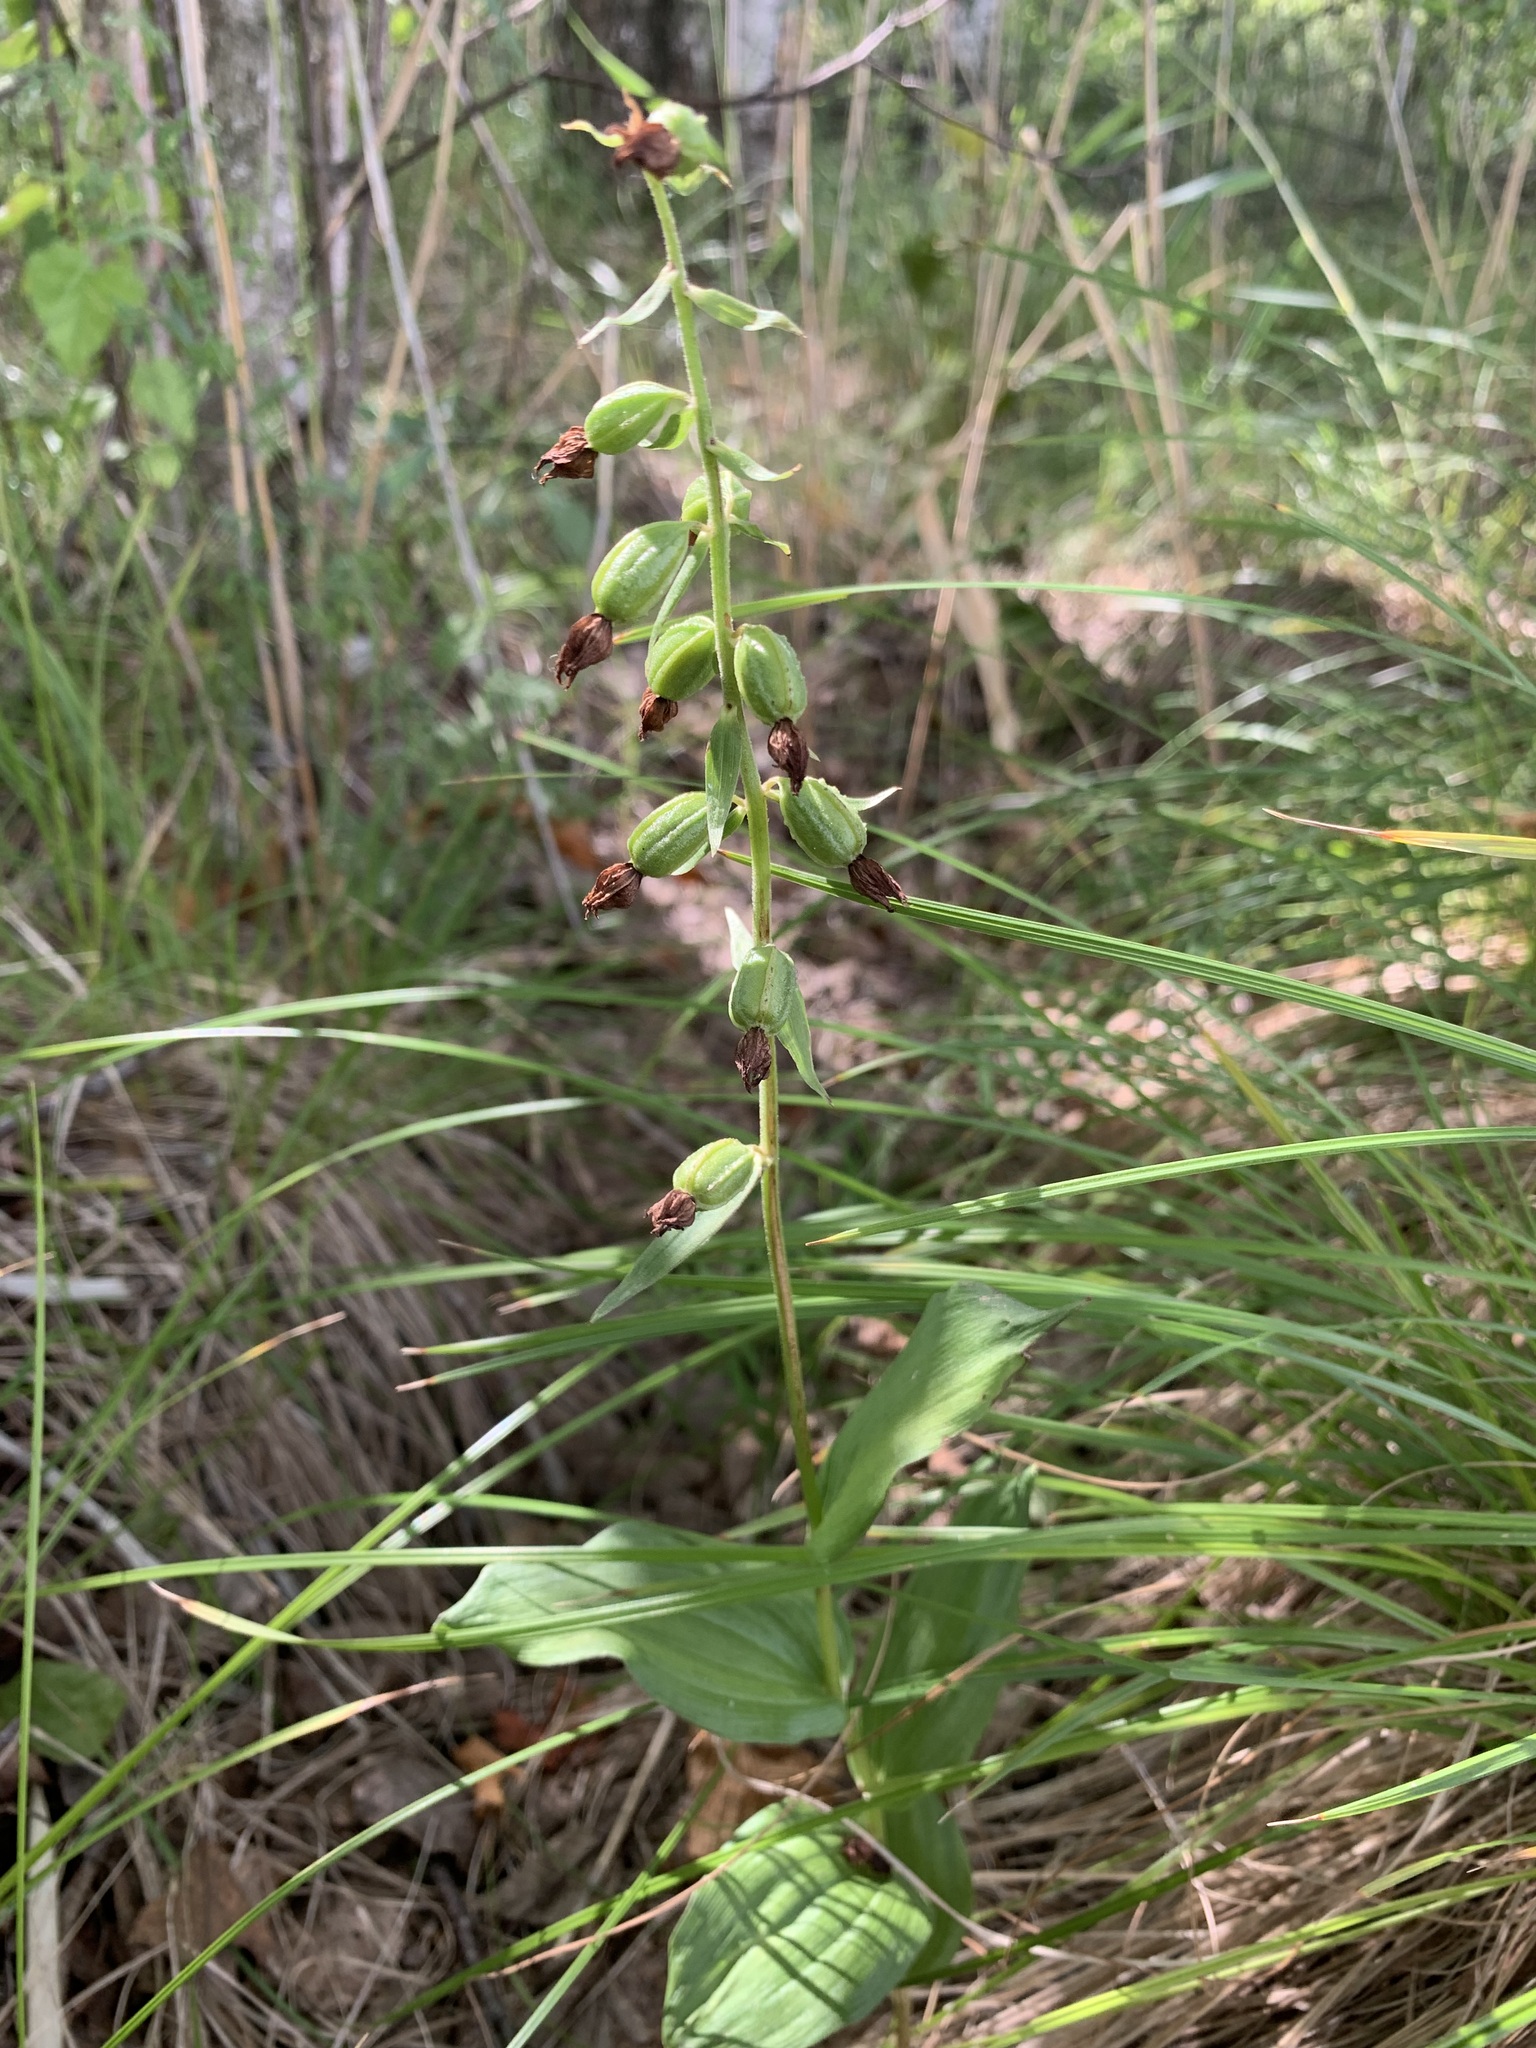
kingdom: Plantae
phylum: Tracheophyta
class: Liliopsida
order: Asparagales
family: Orchidaceae
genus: Epipactis
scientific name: Epipactis helleborine
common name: Broad-leaved helleborine
